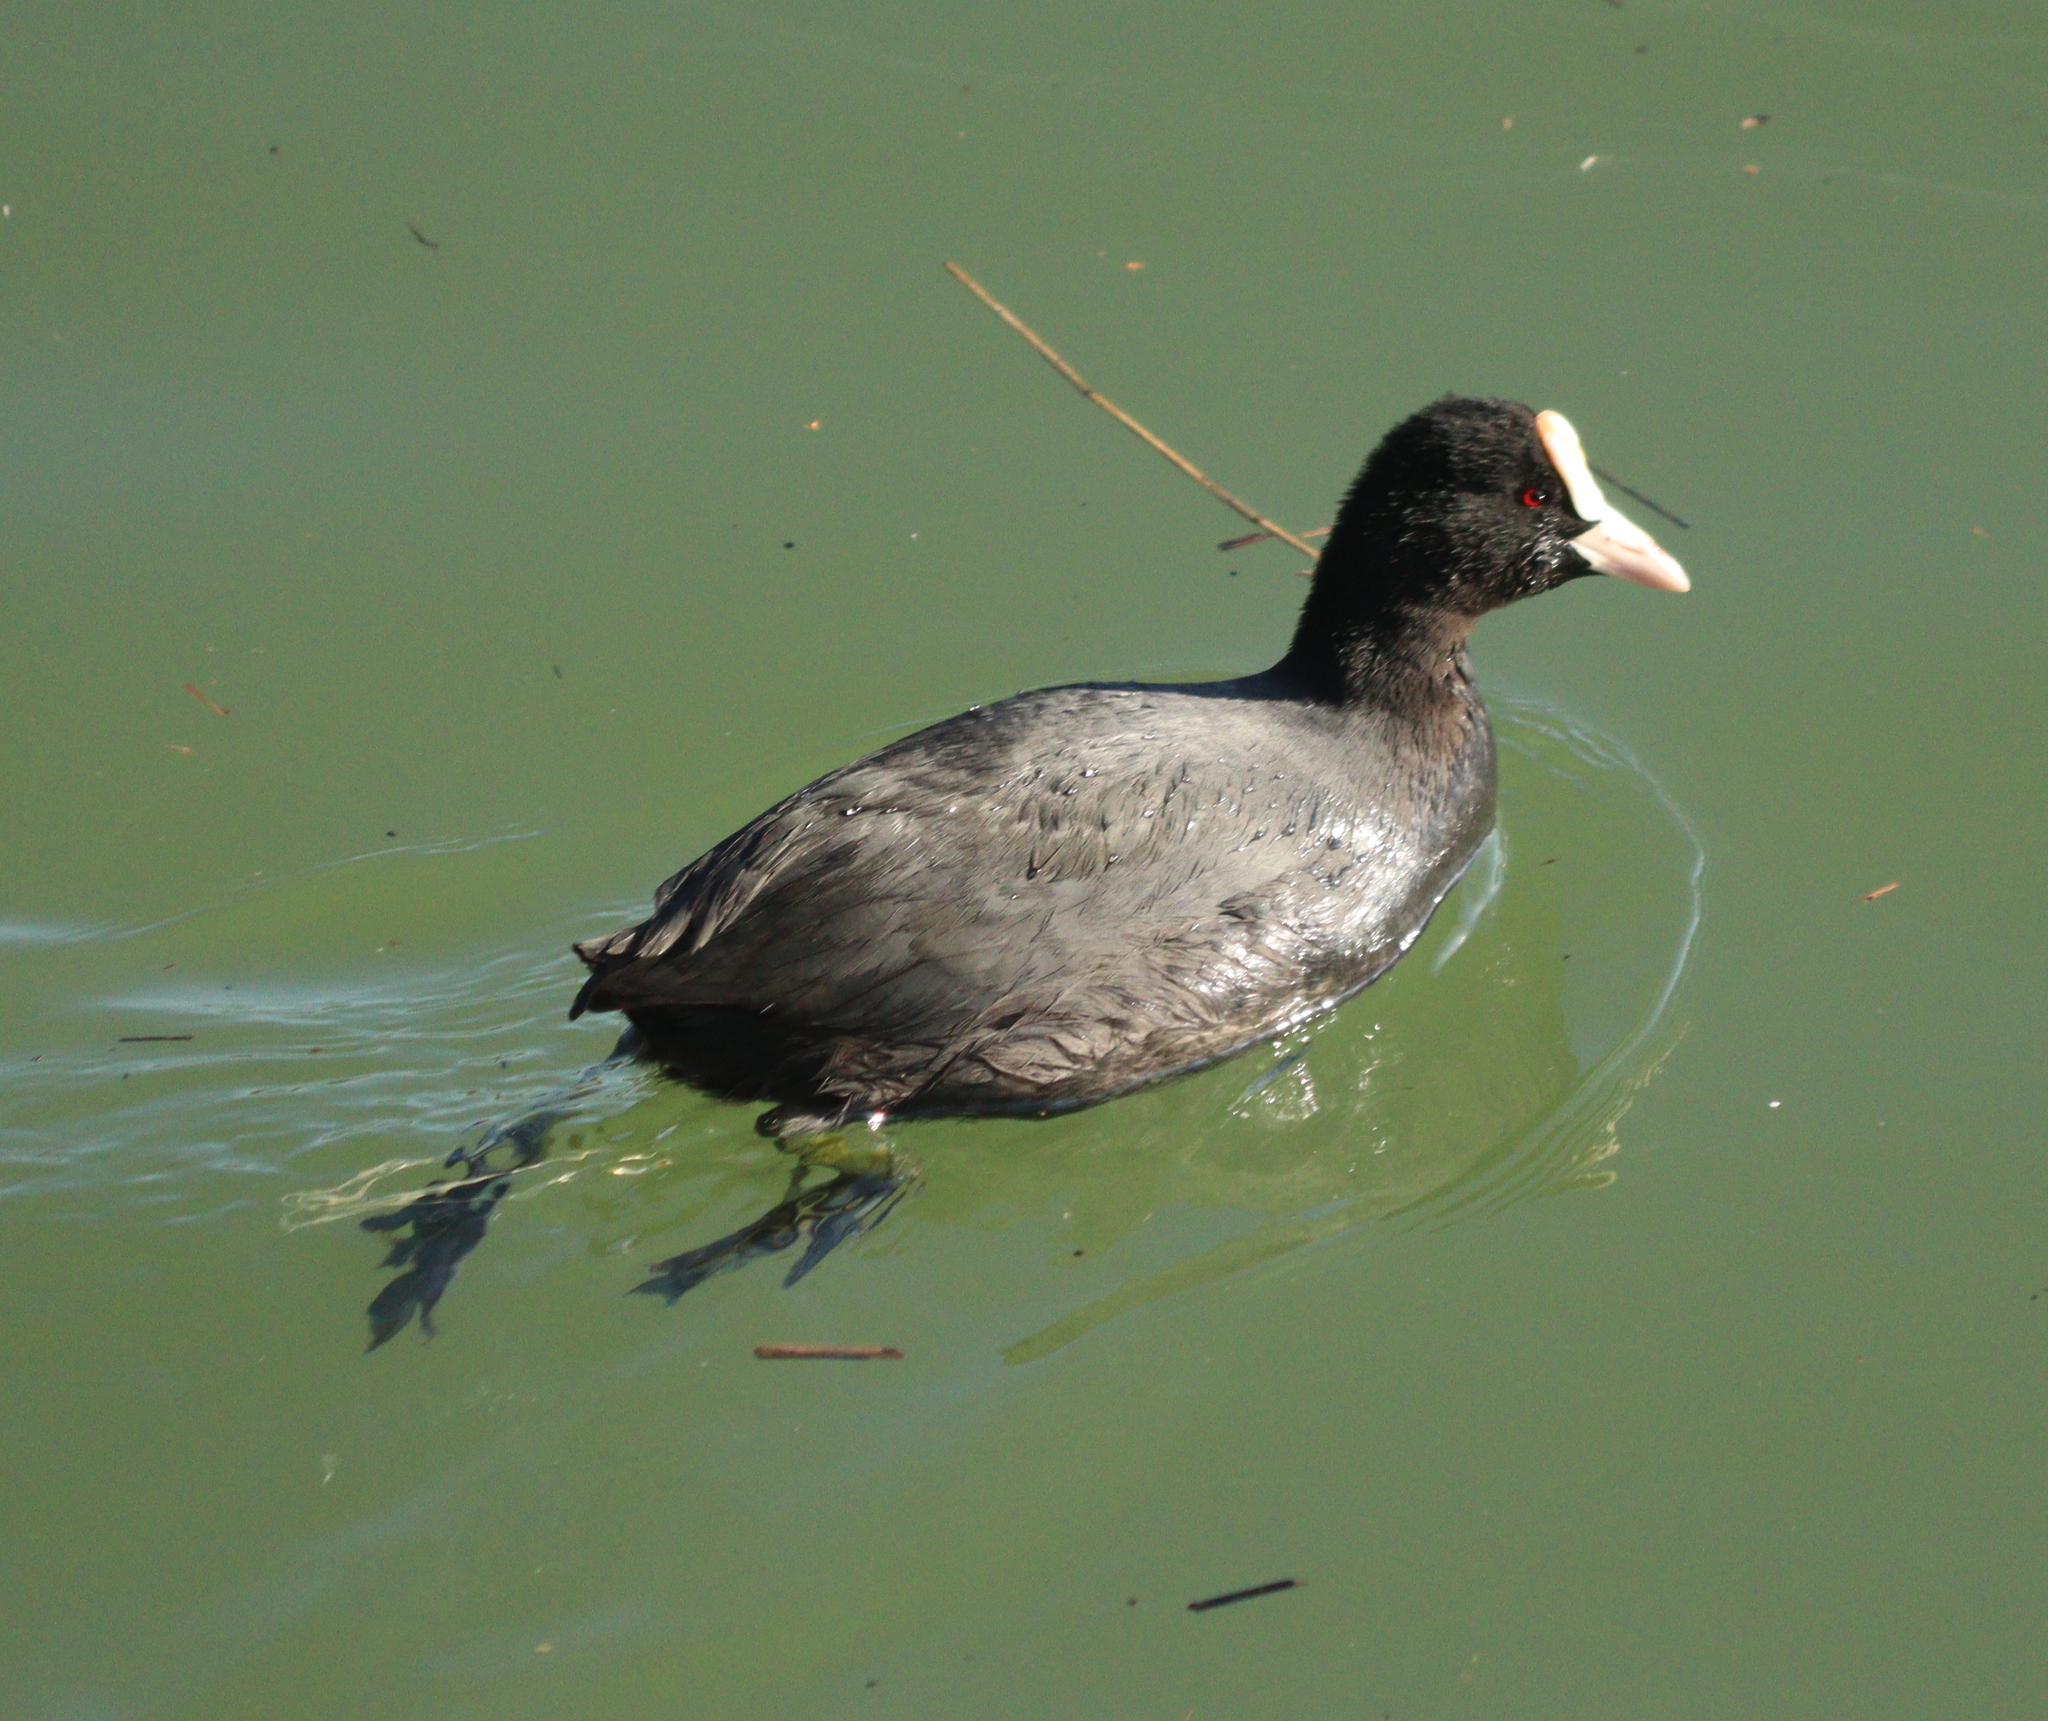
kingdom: Animalia
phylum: Chordata
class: Aves
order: Gruiformes
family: Rallidae
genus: Fulica
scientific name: Fulica atra
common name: Eurasian coot
